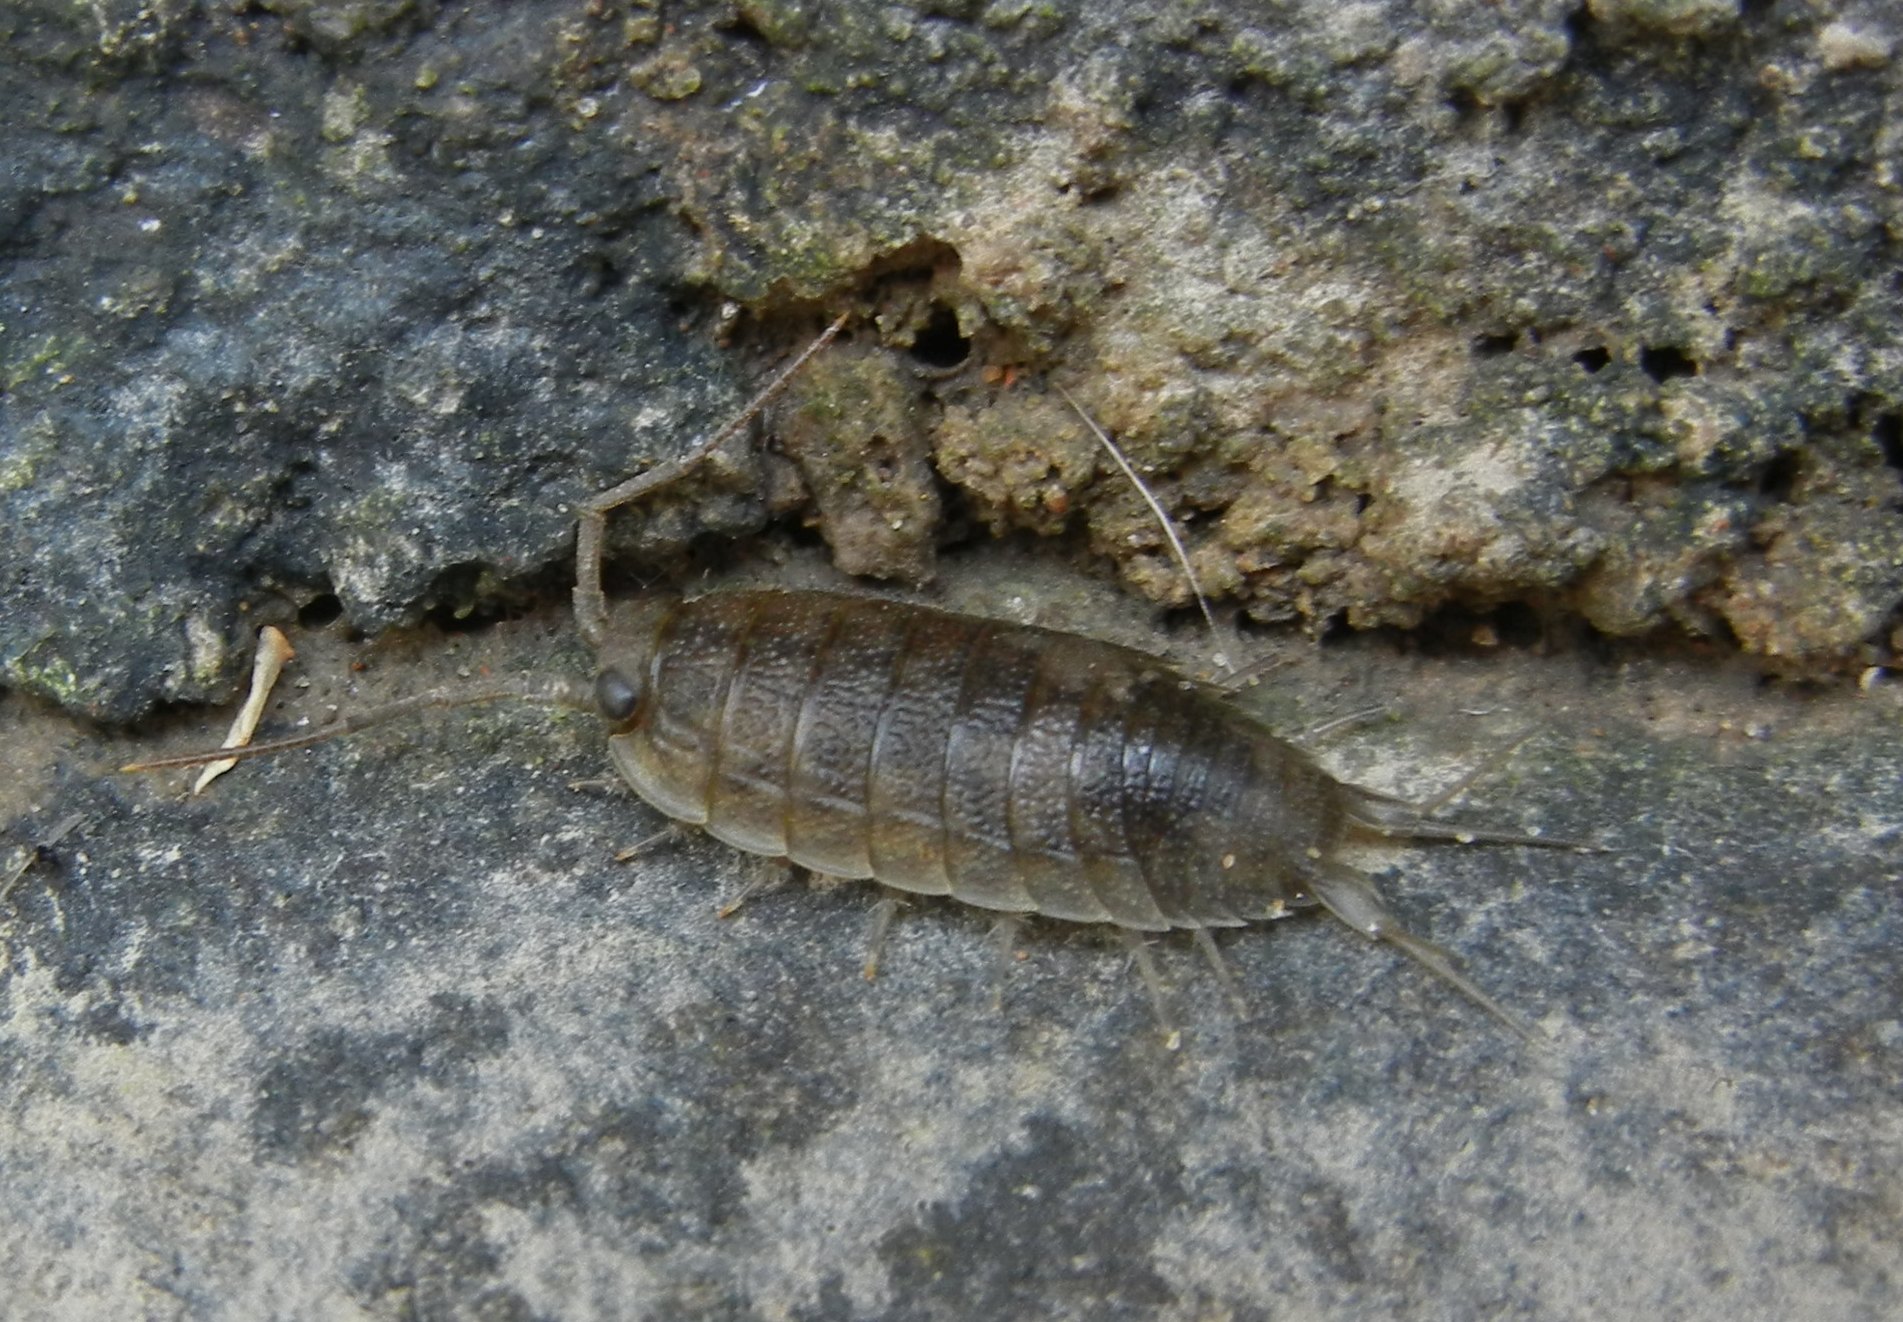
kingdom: Animalia
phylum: Arthropoda
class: Malacostraca
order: Isopoda
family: Ligiidae
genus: Ligia
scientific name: Ligia oceanica
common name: Sea slater
